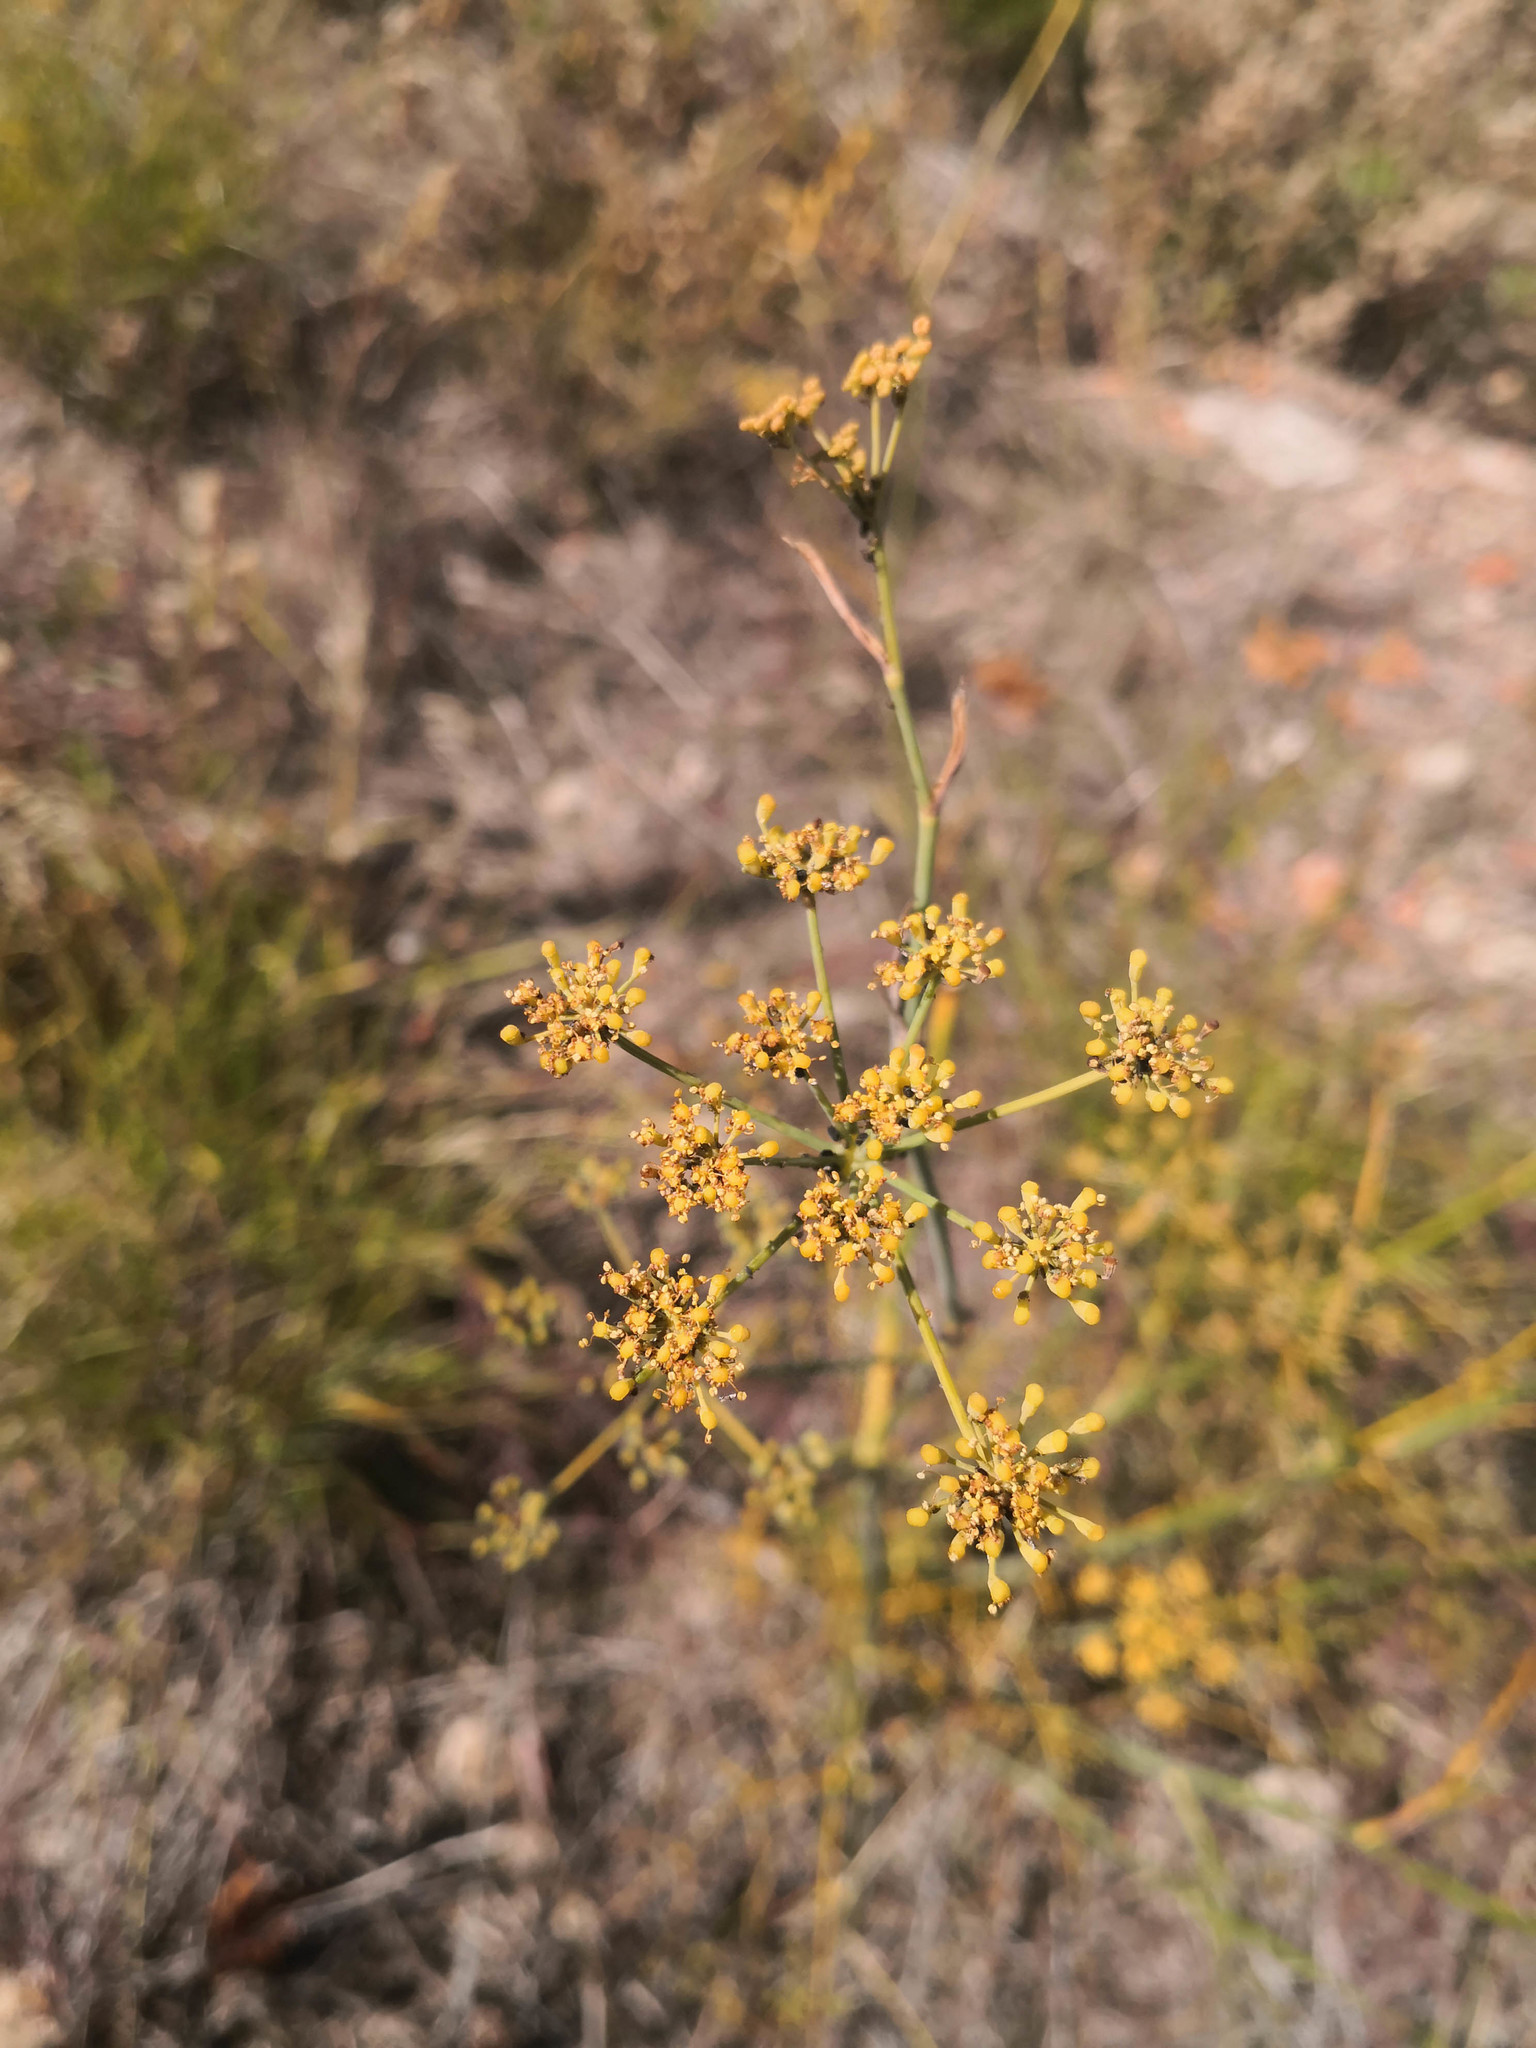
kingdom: Plantae
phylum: Tracheophyta
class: Magnoliopsida
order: Apiales
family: Apiaceae
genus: Foeniculum
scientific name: Foeniculum vulgare
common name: Fennel
